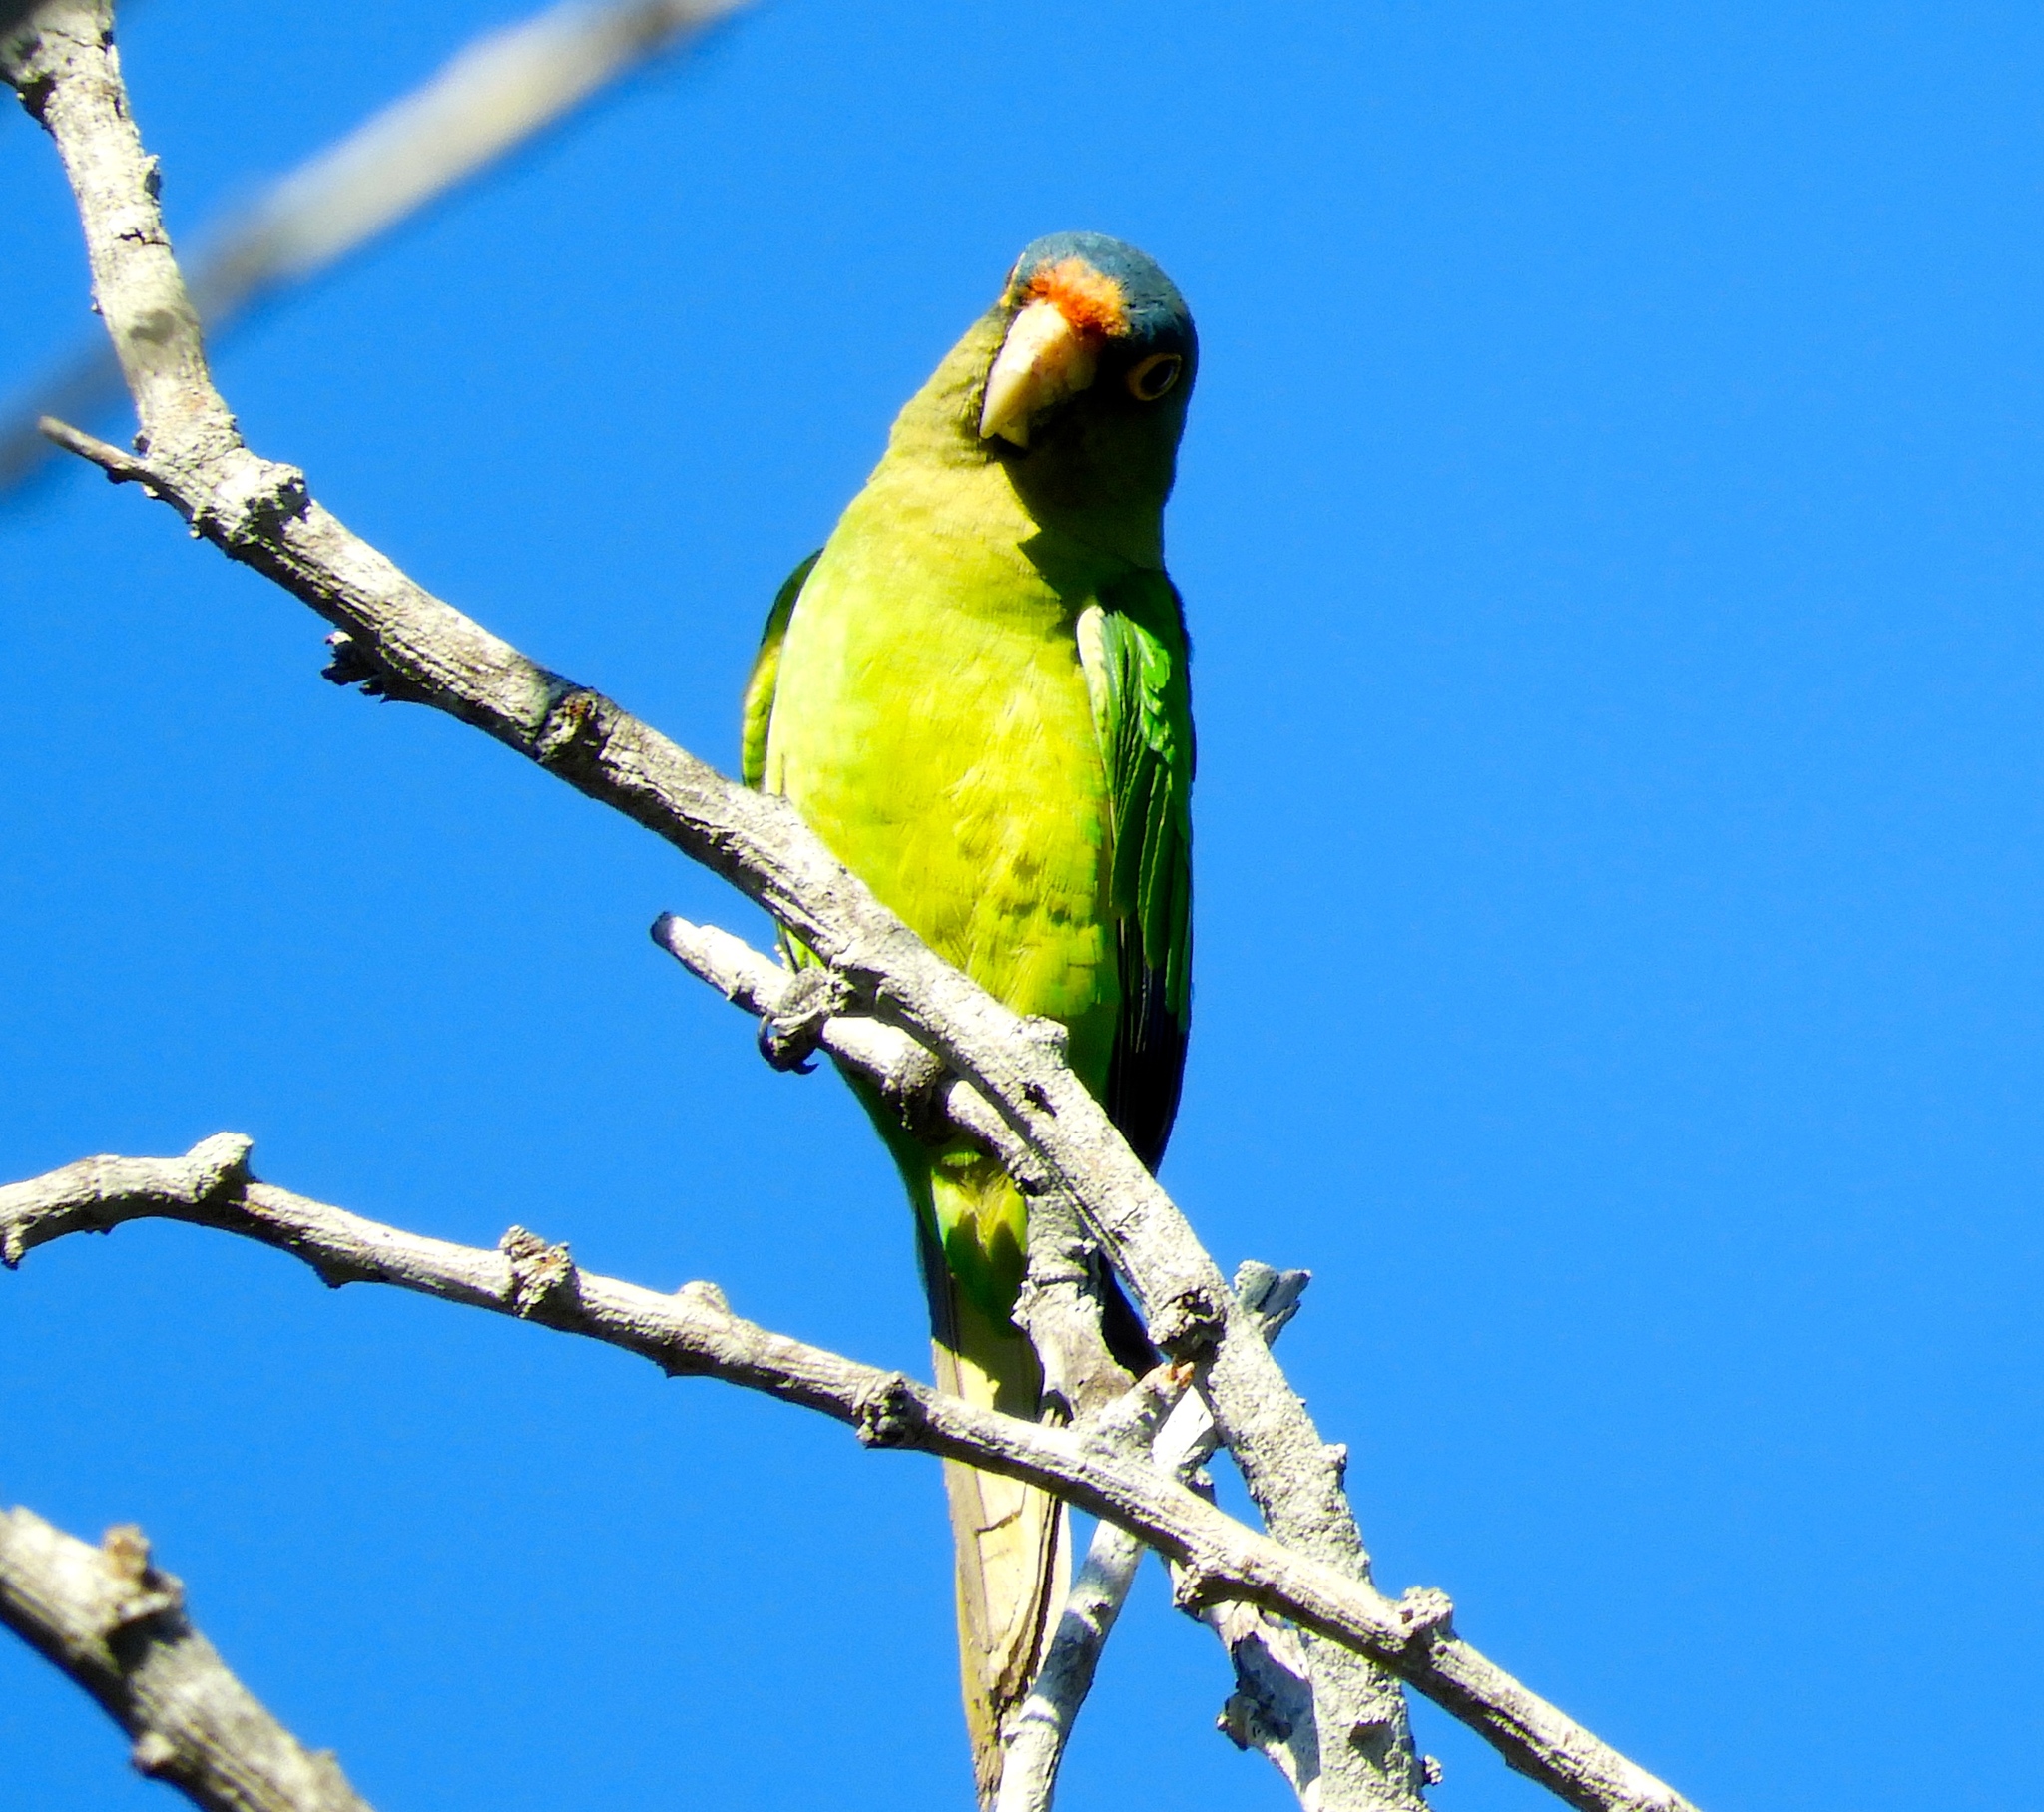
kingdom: Animalia
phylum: Chordata
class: Aves
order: Psittaciformes
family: Psittacidae
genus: Aratinga
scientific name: Aratinga canicularis
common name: Orange-fronted parakeet
